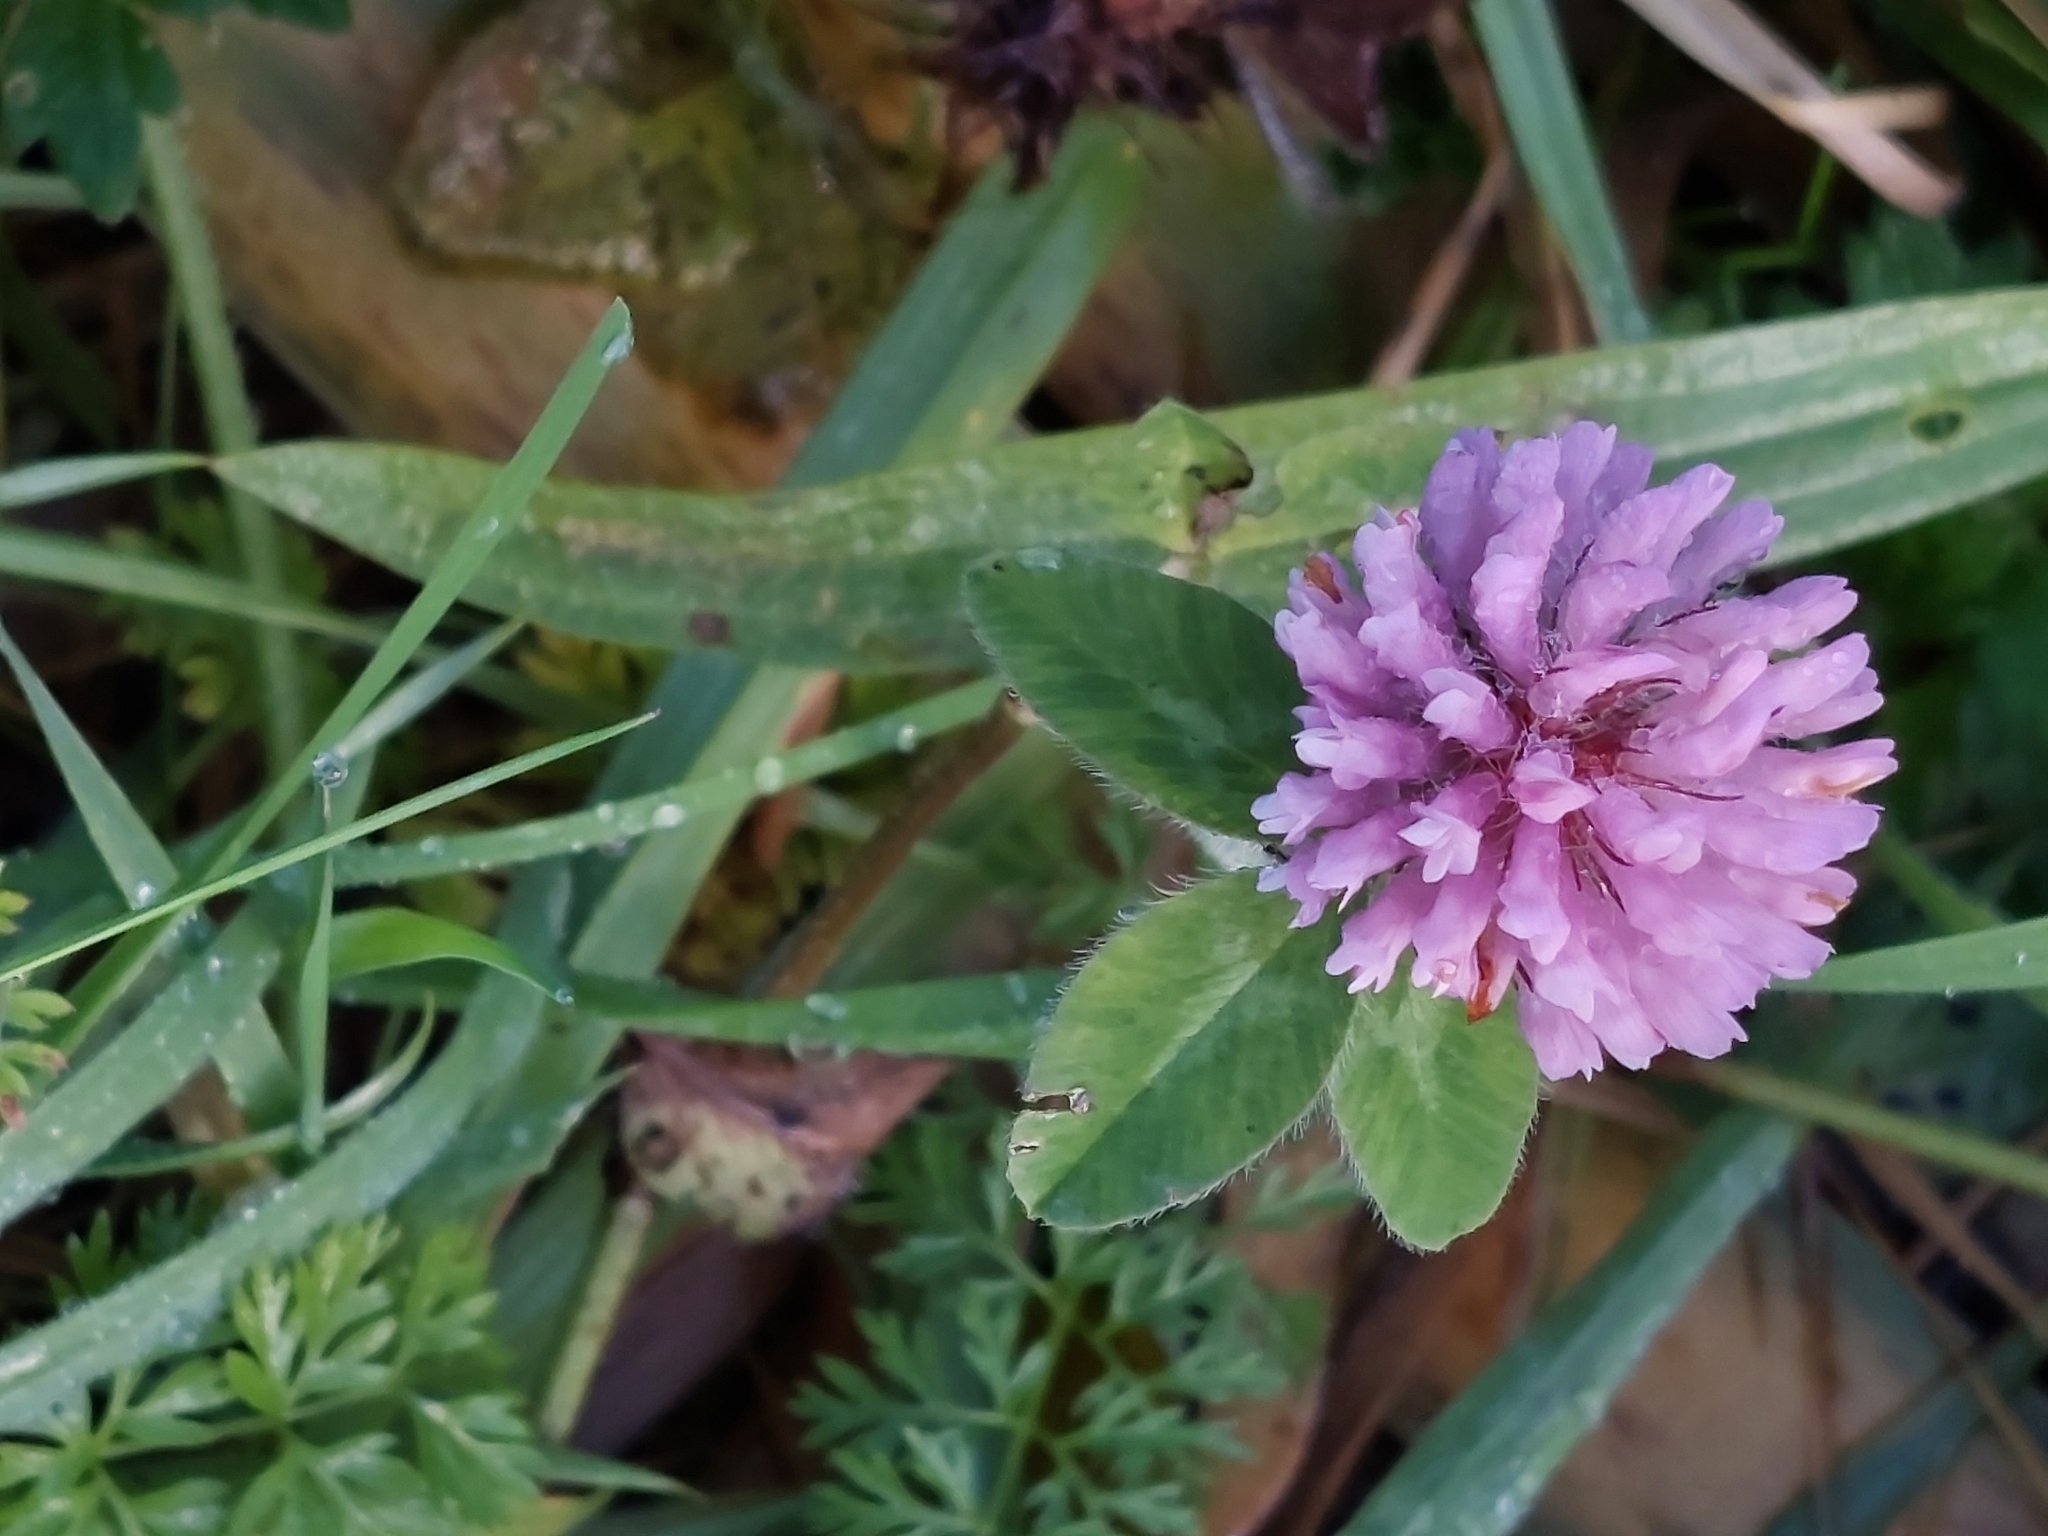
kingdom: Plantae
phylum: Tracheophyta
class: Magnoliopsida
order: Fabales
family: Fabaceae
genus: Trifolium
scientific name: Trifolium pratense
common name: Red clover
